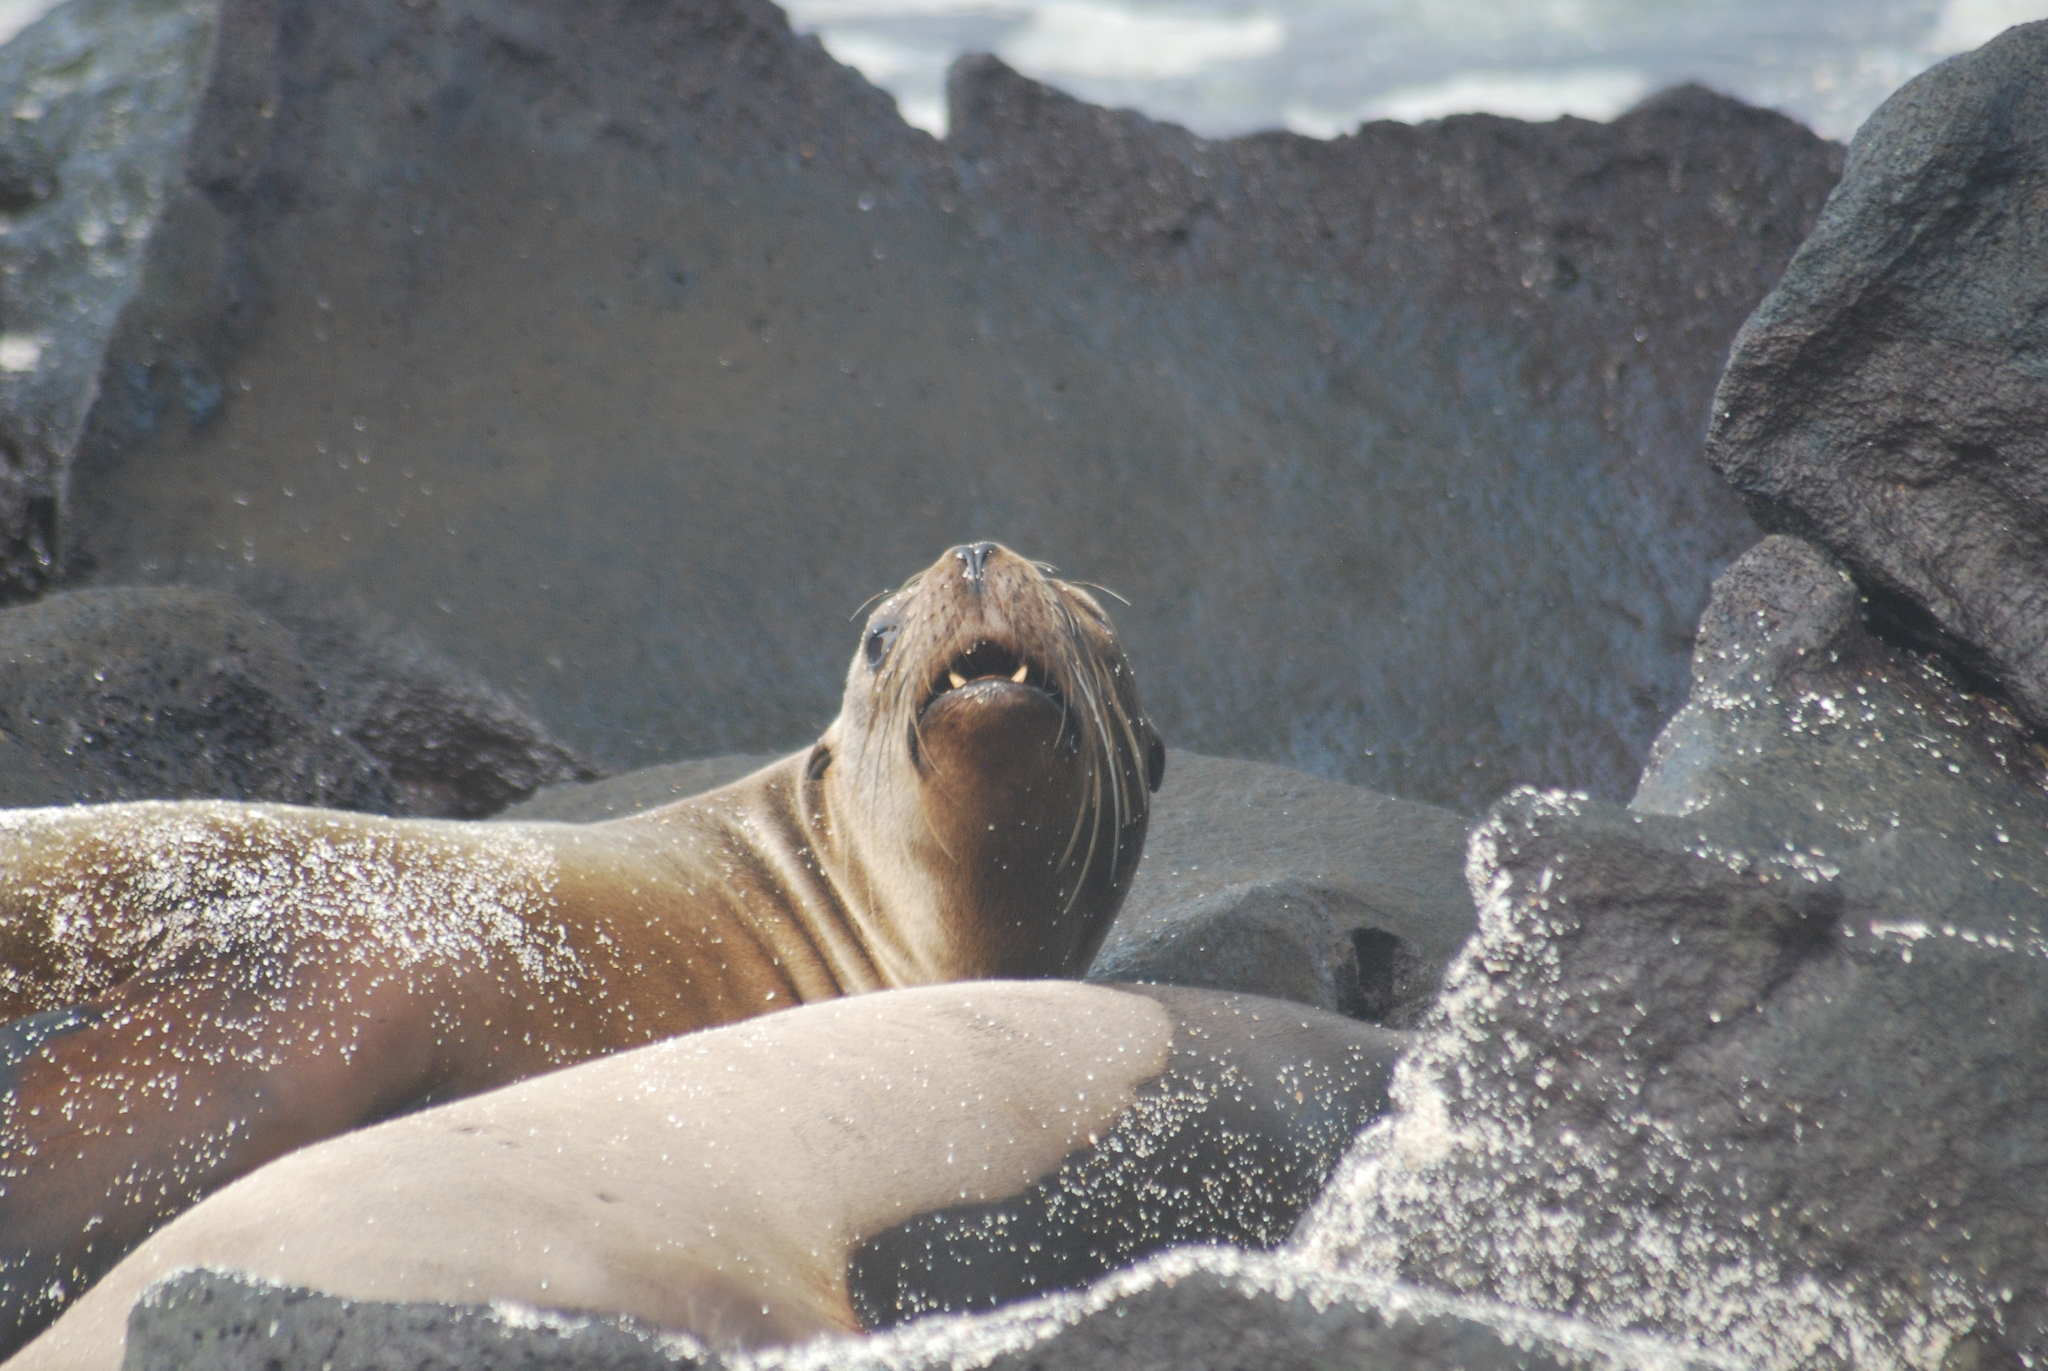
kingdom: Animalia
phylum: Chordata
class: Mammalia
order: Carnivora
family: Otariidae
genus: Zalophus
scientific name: Zalophus wollebaeki
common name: Galapagos sea lion
